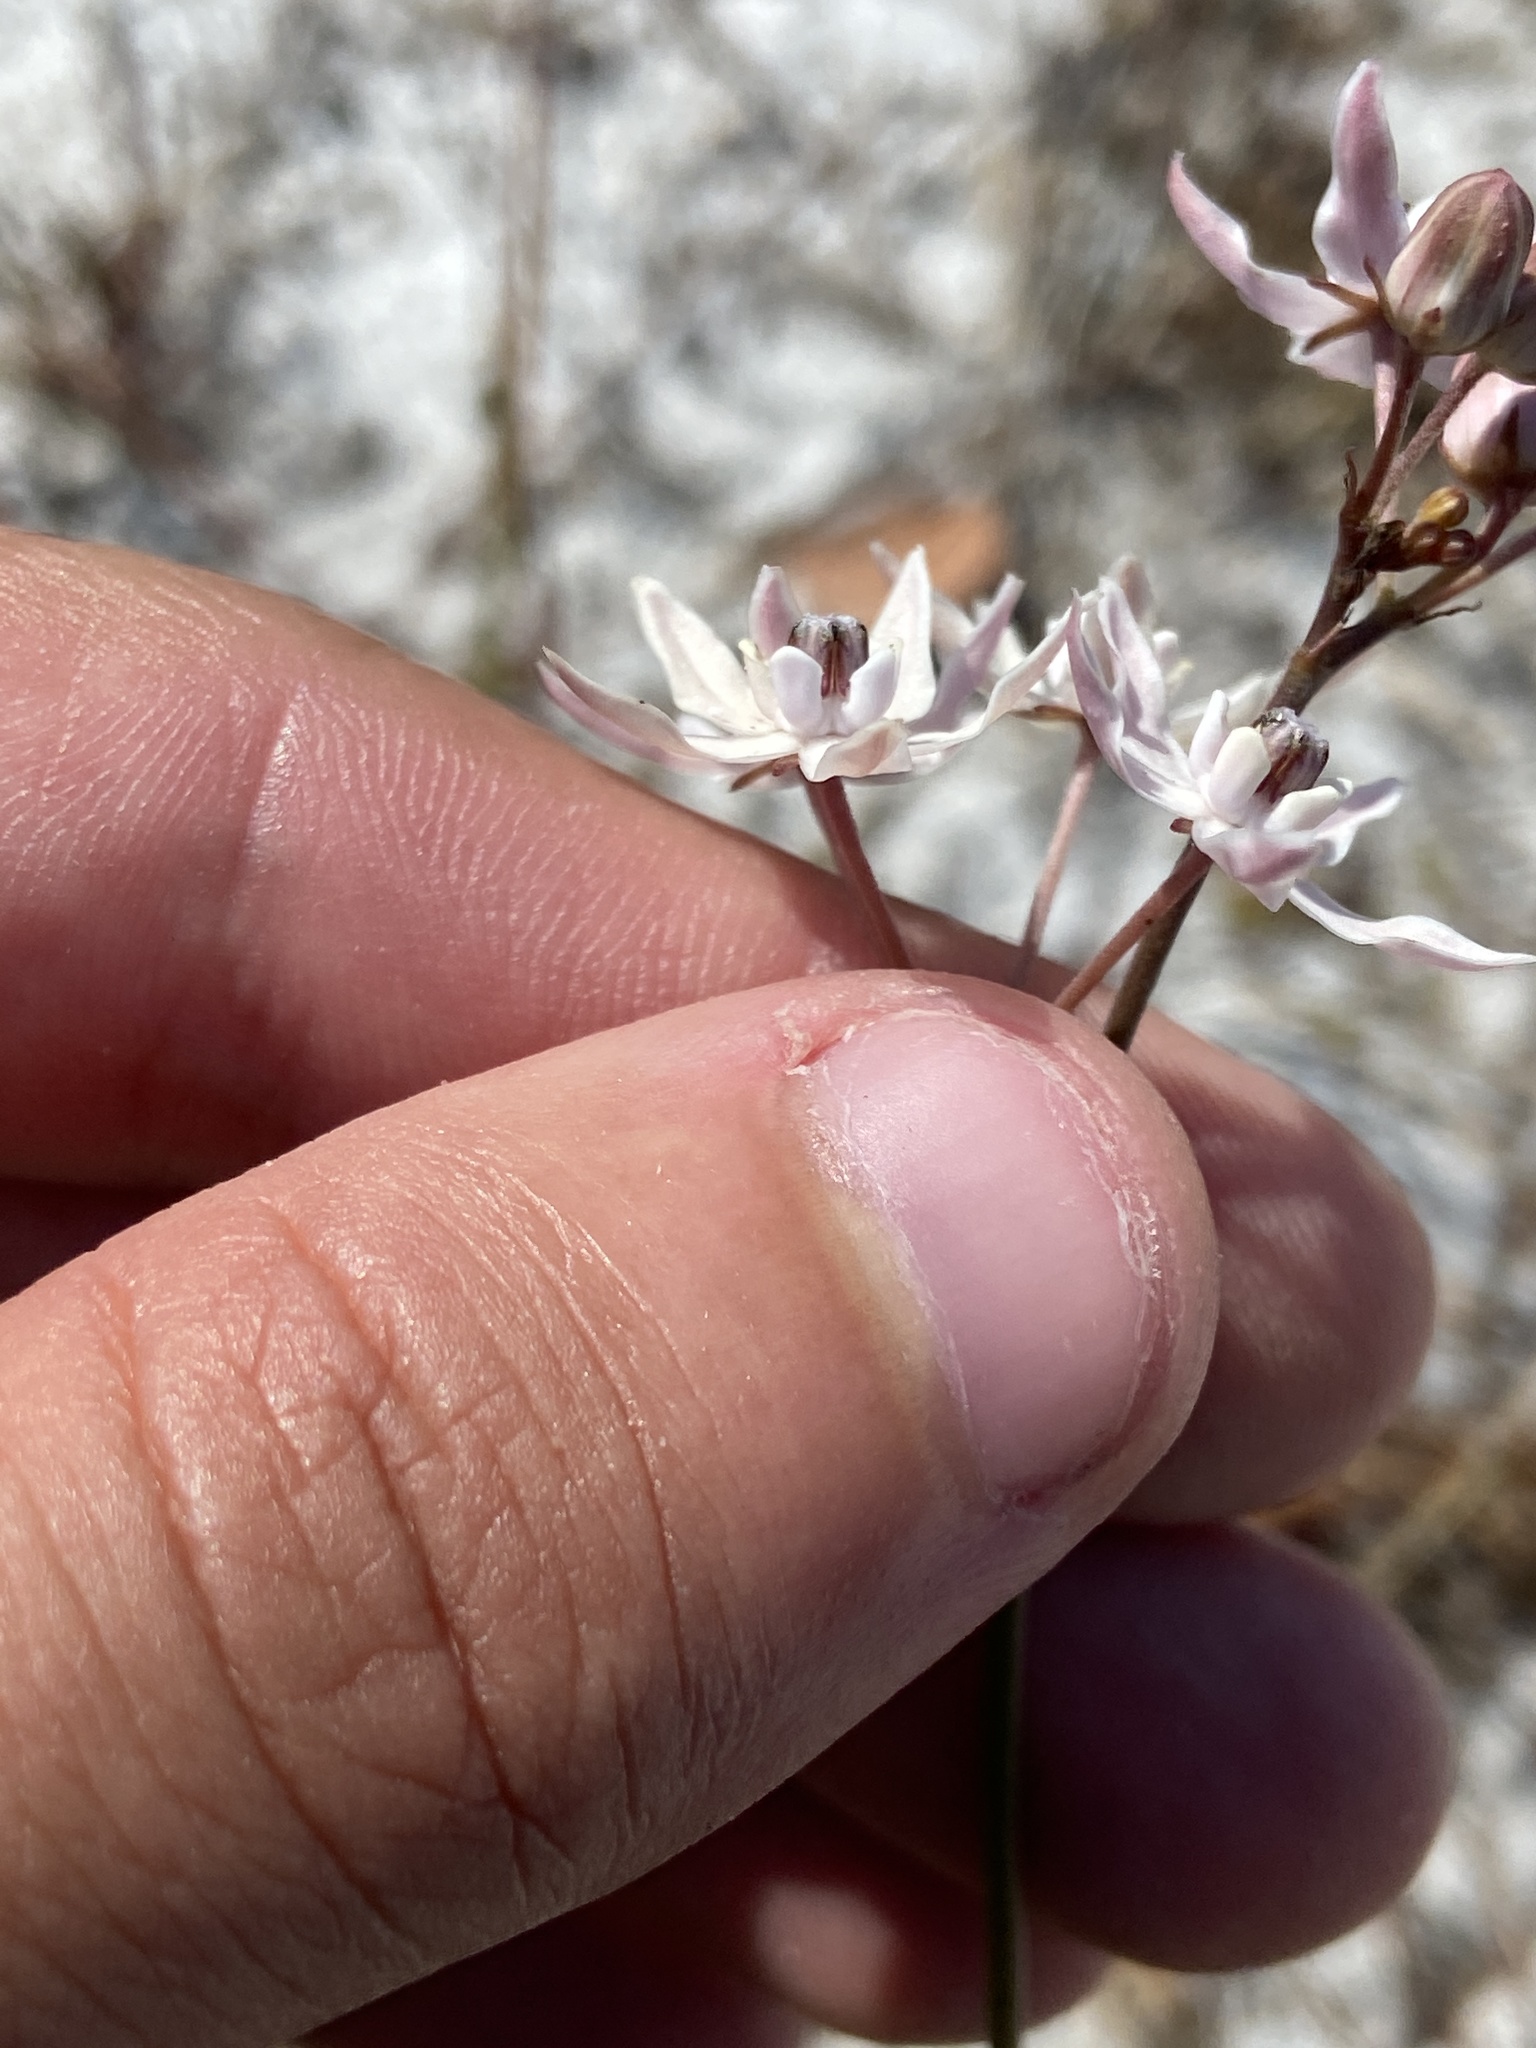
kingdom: Plantae
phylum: Tracheophyta
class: Magnoliopsida
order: Gentianales
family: Apocynaceae
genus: Asclepias
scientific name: Asclepias feayi
